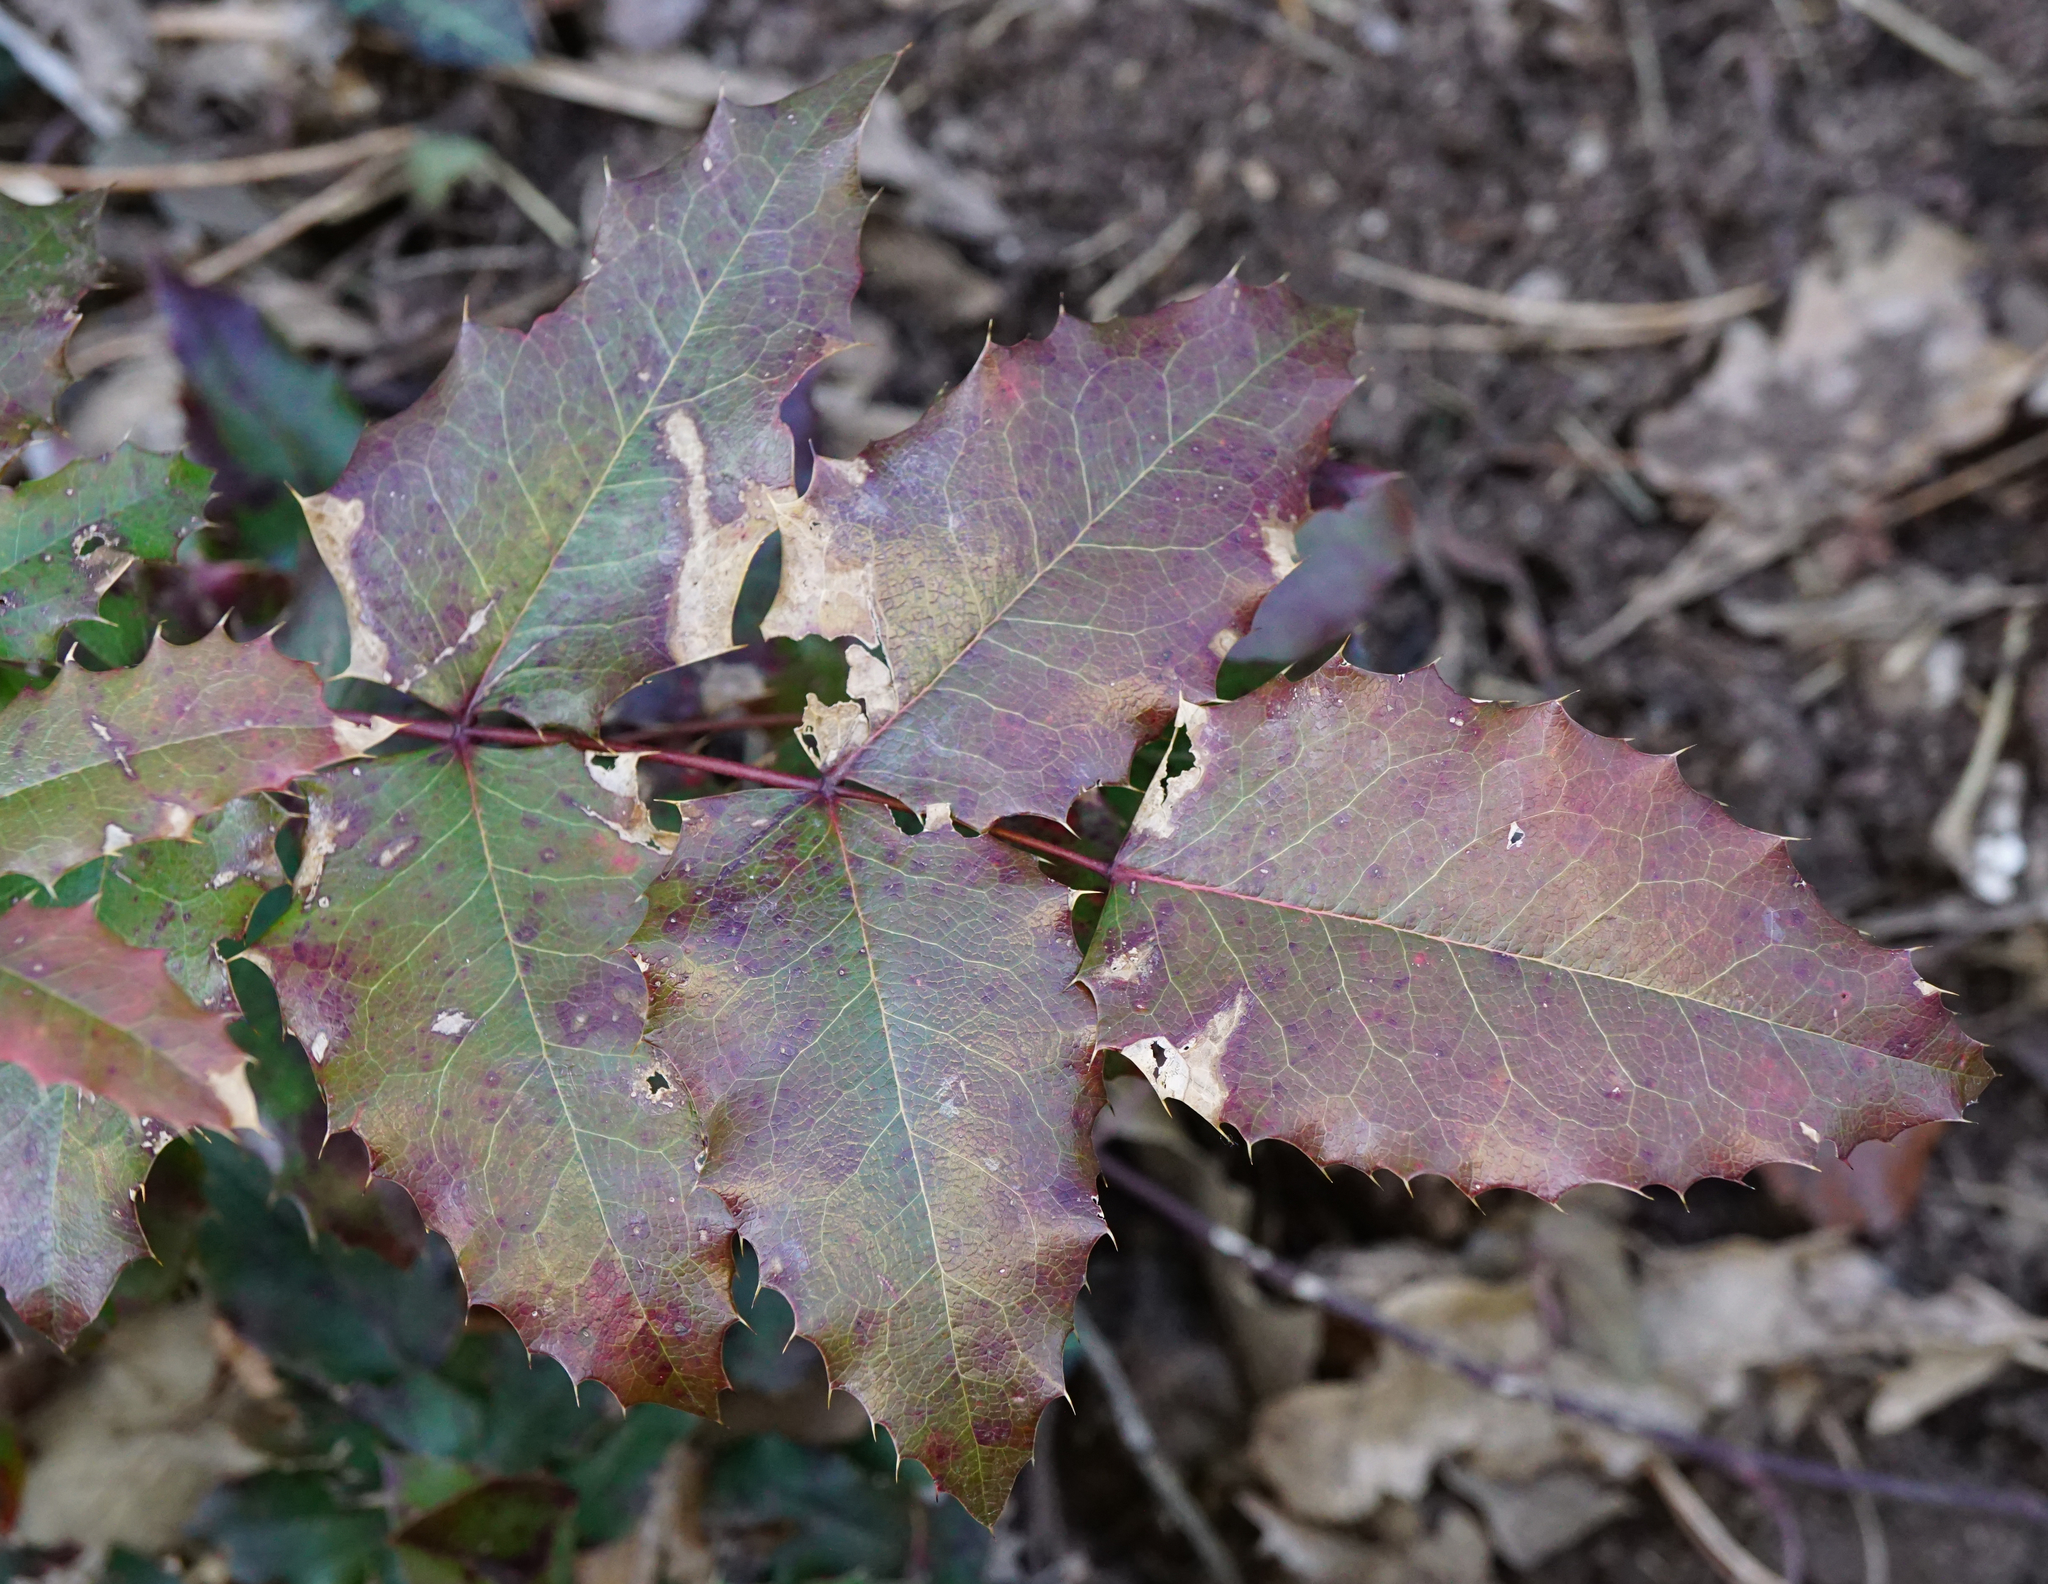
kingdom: Plantae
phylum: Tracheophyta
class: Magnoliopsida
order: Ranunculales
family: Berberidaceae
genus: Mahonia
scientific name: Mahonia aquifolium
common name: Oregon-grape
